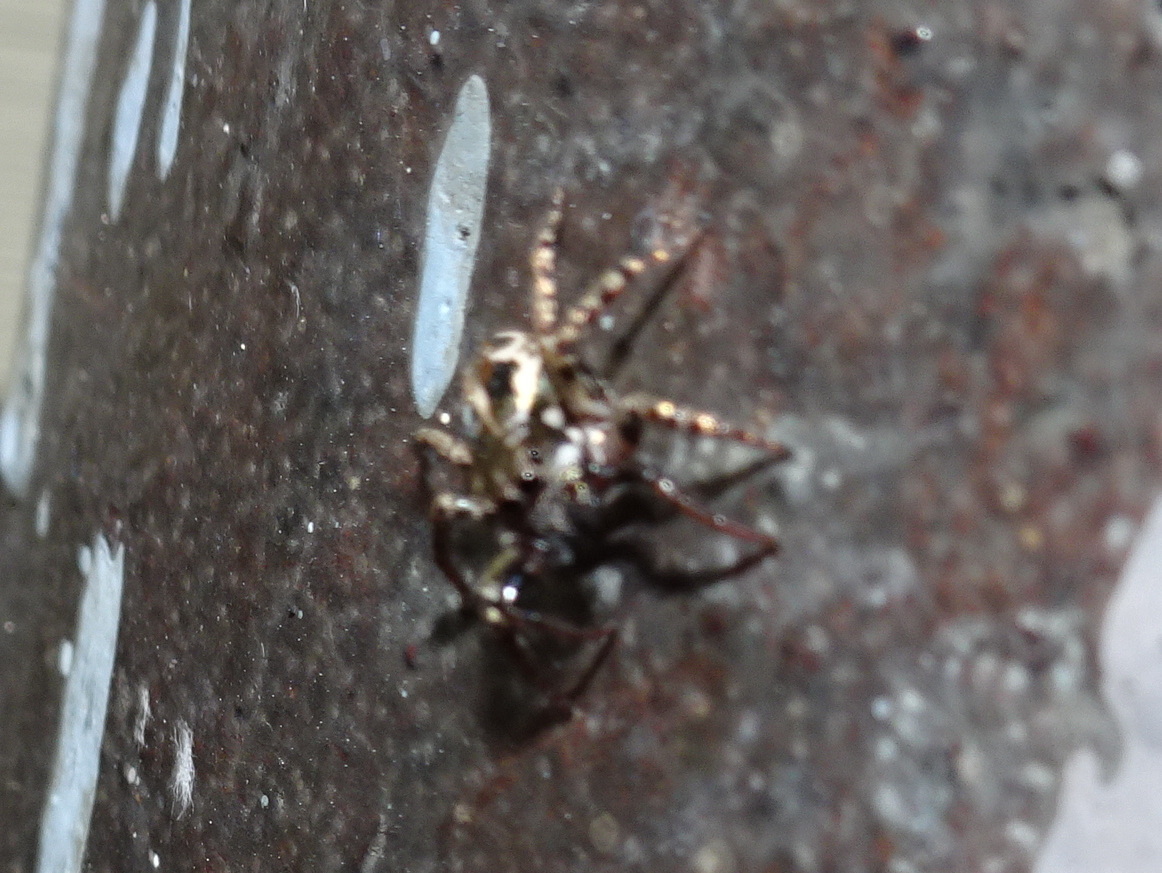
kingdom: Animalia
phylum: Arthropoda
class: Arachnida
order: Araneae
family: Salticidae
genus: Anasaitis
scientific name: Anasaitis canosa
